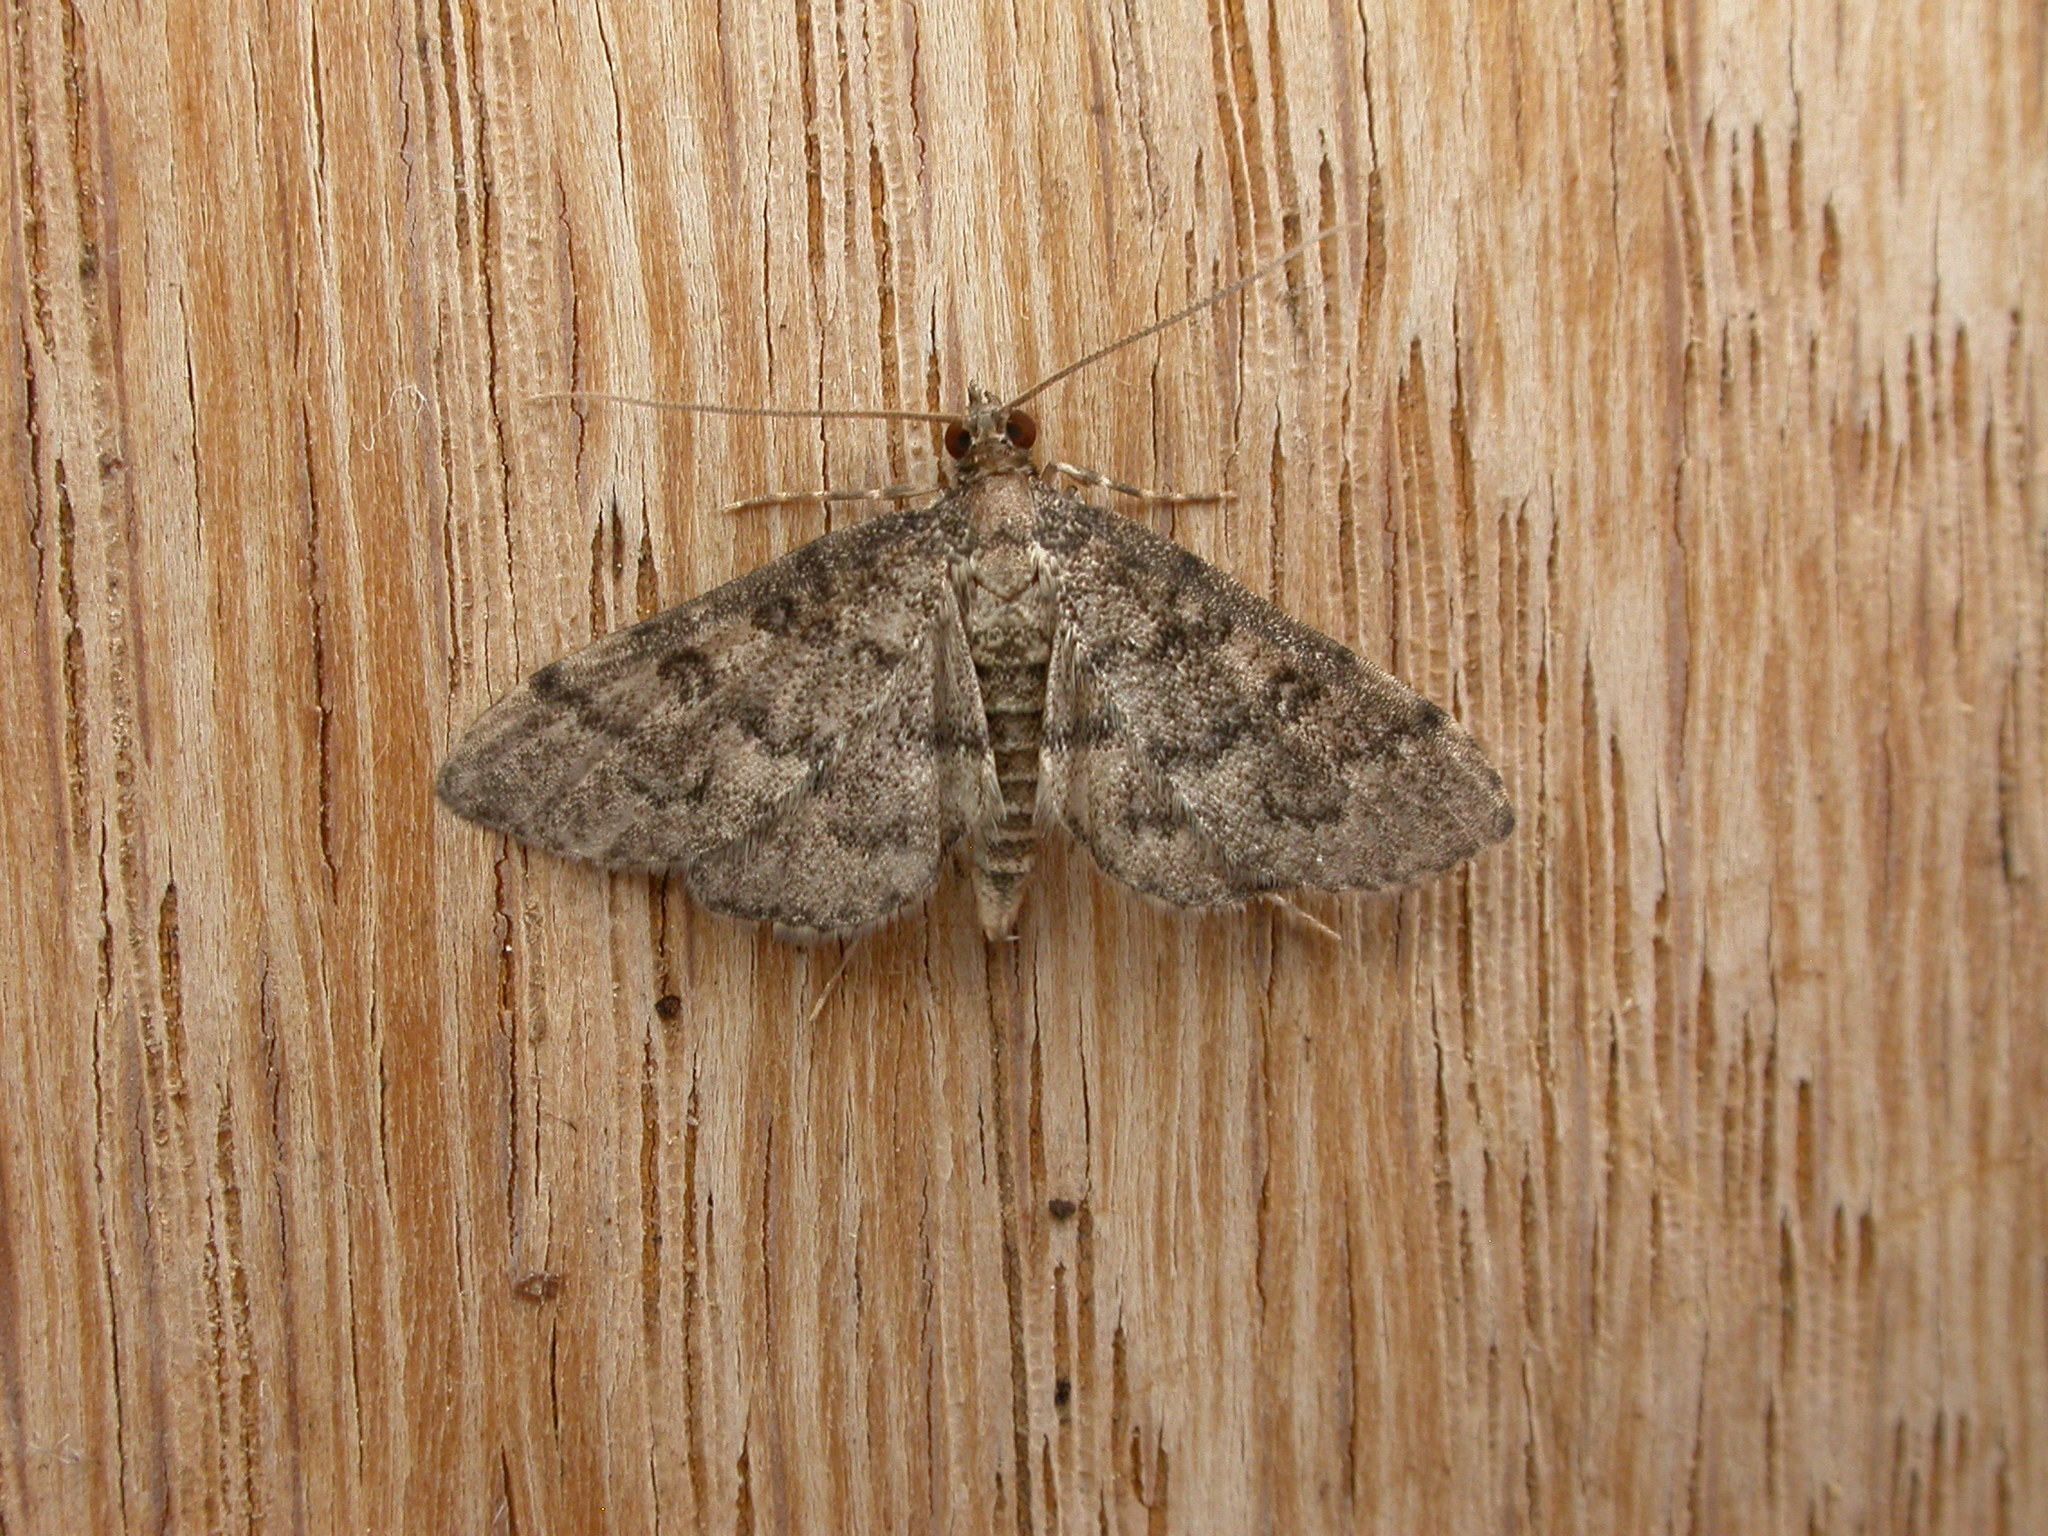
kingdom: Animalia
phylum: Arthropoda
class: Insecta
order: Lepidoptera
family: Crambidae
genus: Metasia
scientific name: Metasia liophaea
